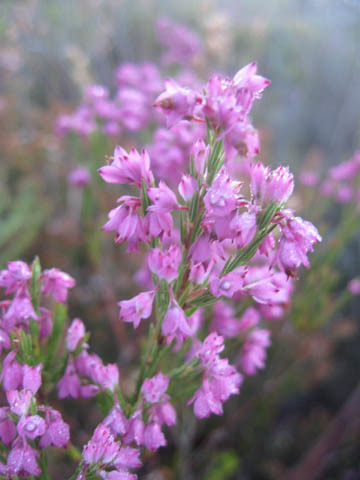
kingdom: Plantae
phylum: Tracheophyta
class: Magnoliopsida
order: Ericales
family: Ericaceae
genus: Erica
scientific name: Erica corifolia
